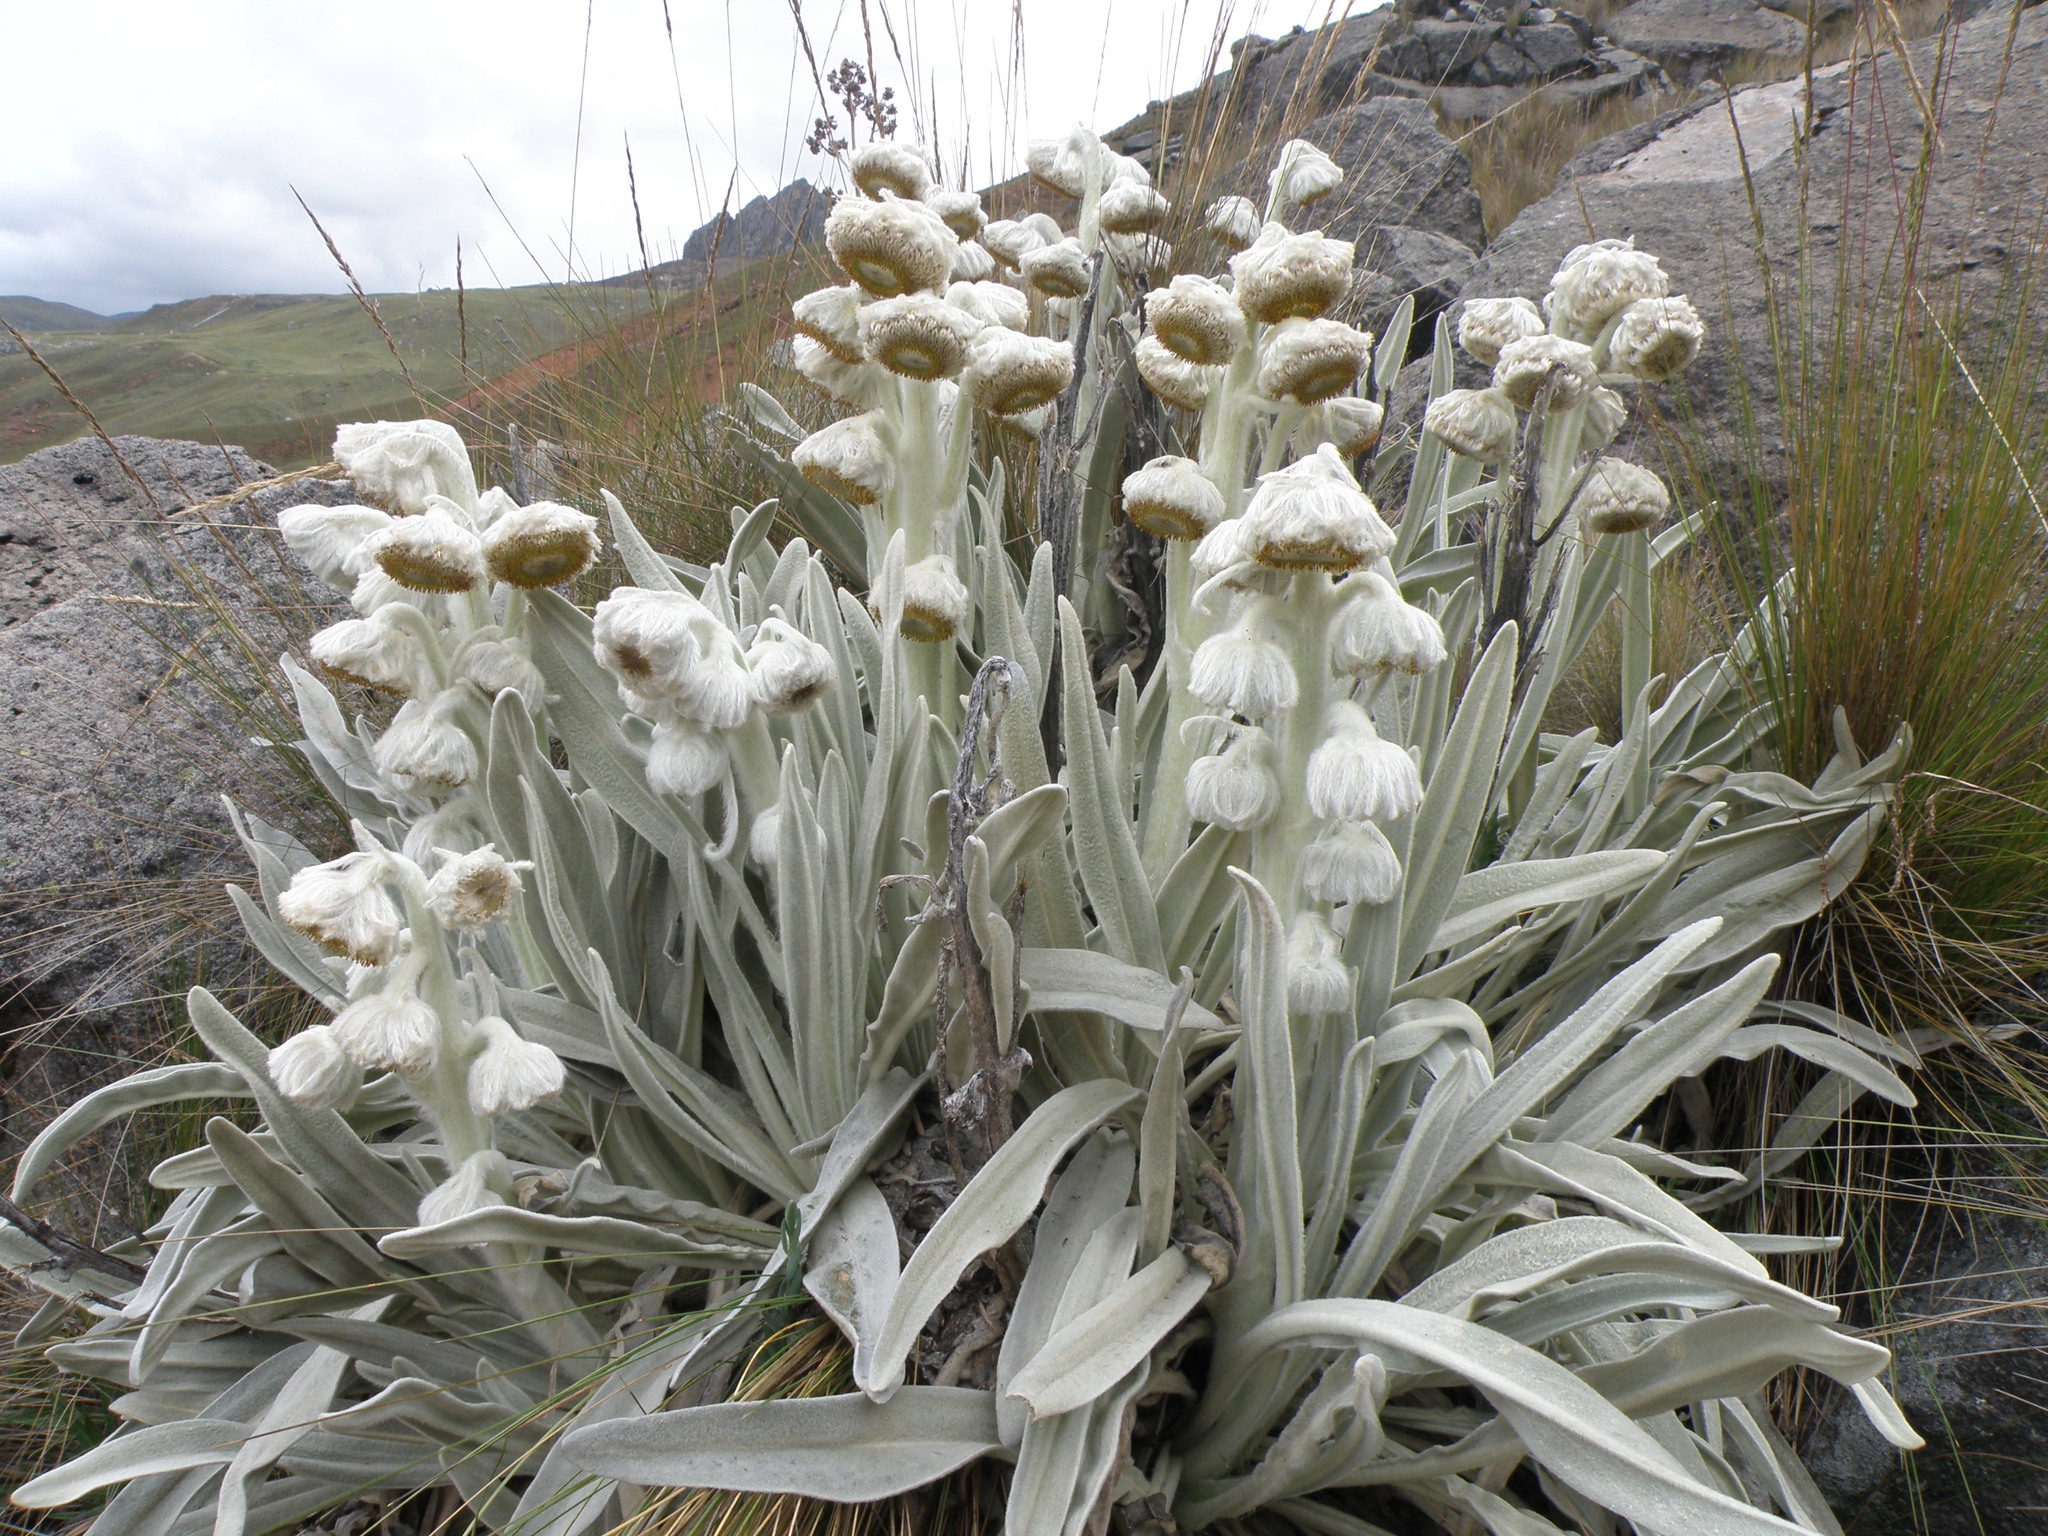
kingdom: Plantae
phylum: Tracheophyta
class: Magnoliopsida
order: Asterales
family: Asteraceae
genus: Culcitium
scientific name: Culcitium canescens
